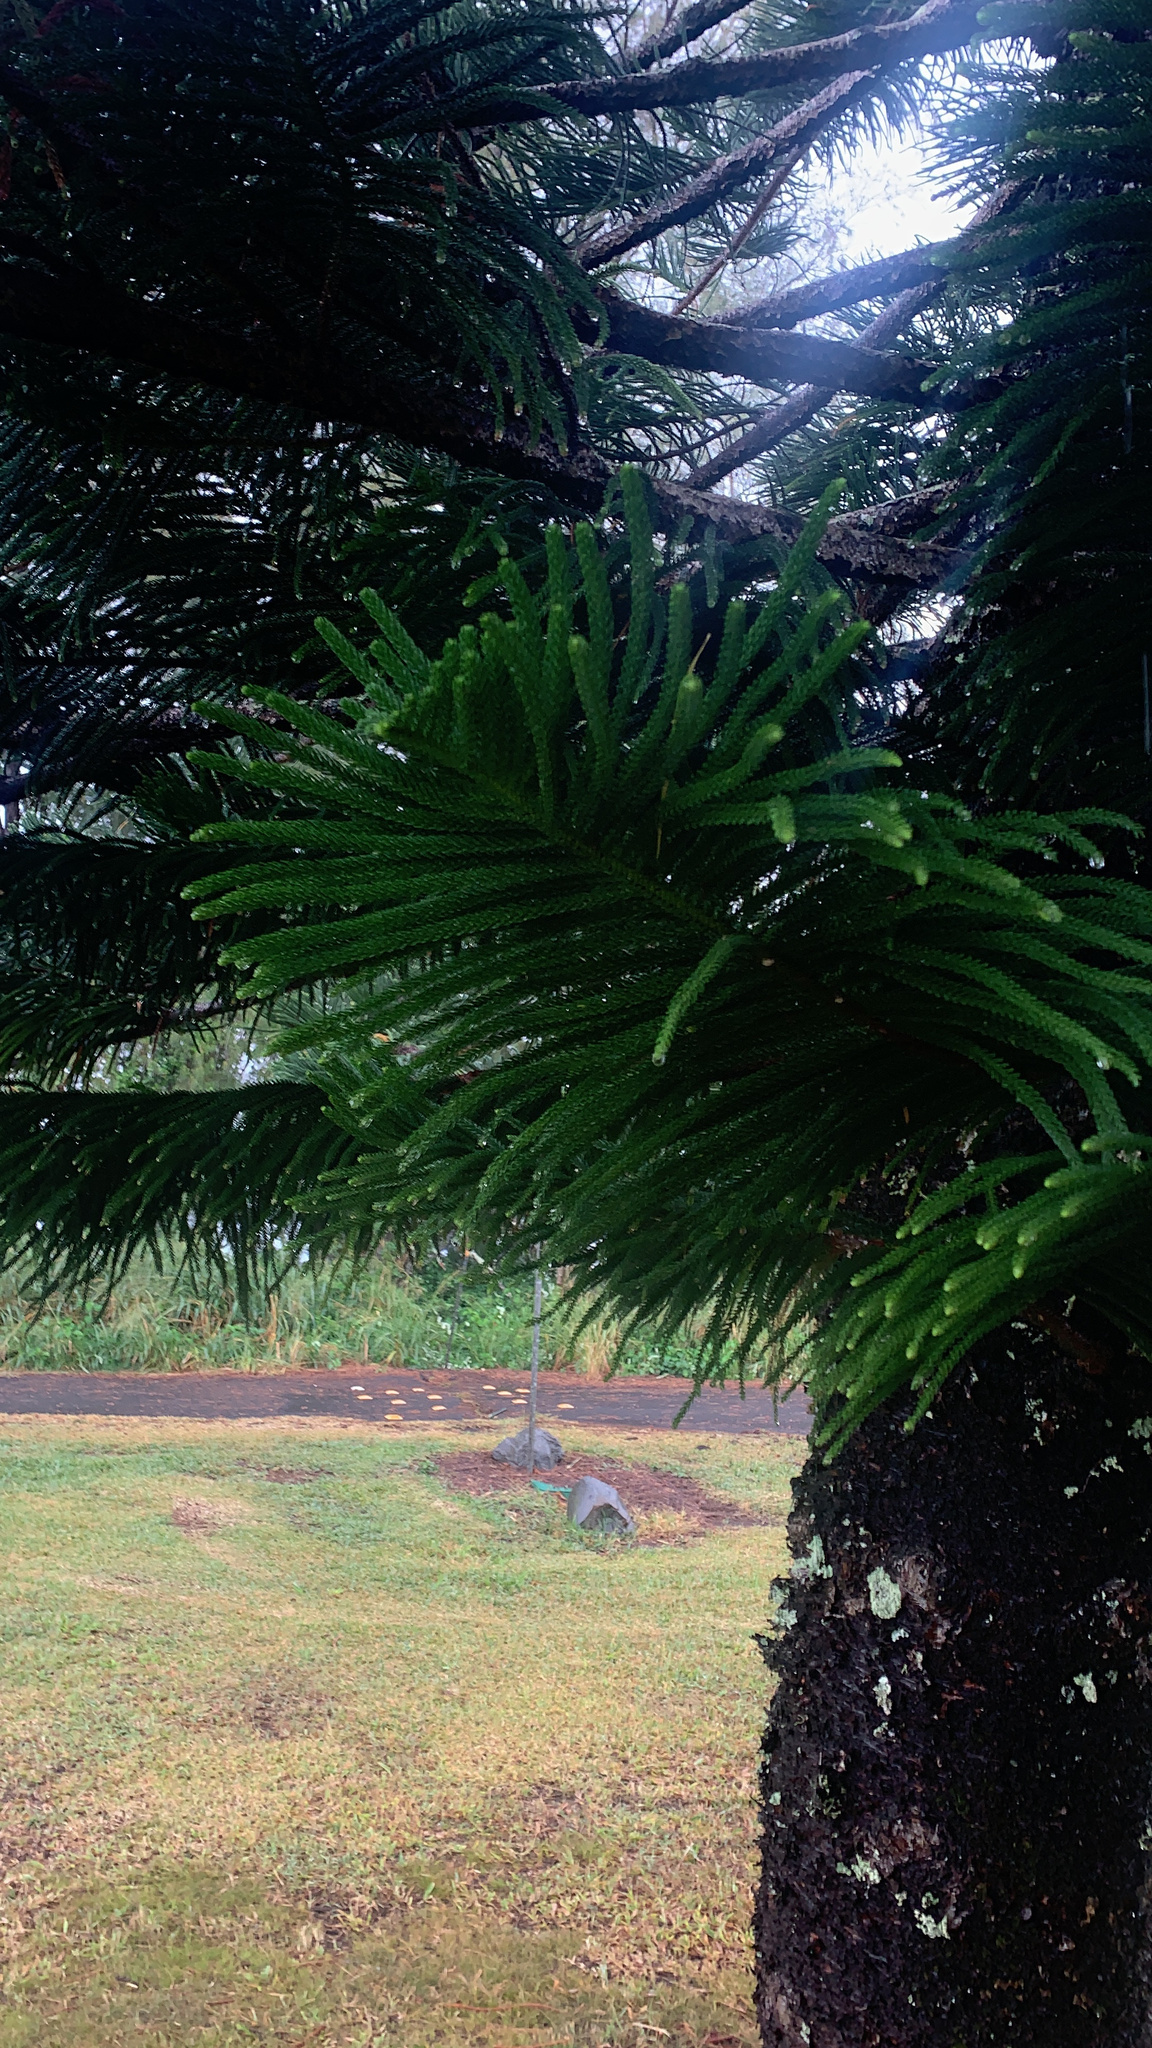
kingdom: Plantae
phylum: Tracheophyta
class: Pinopsida
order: Pinales
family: Araucariaceae
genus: Araucaria
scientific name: Araucaria columnaris
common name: Coral reef araucaria
